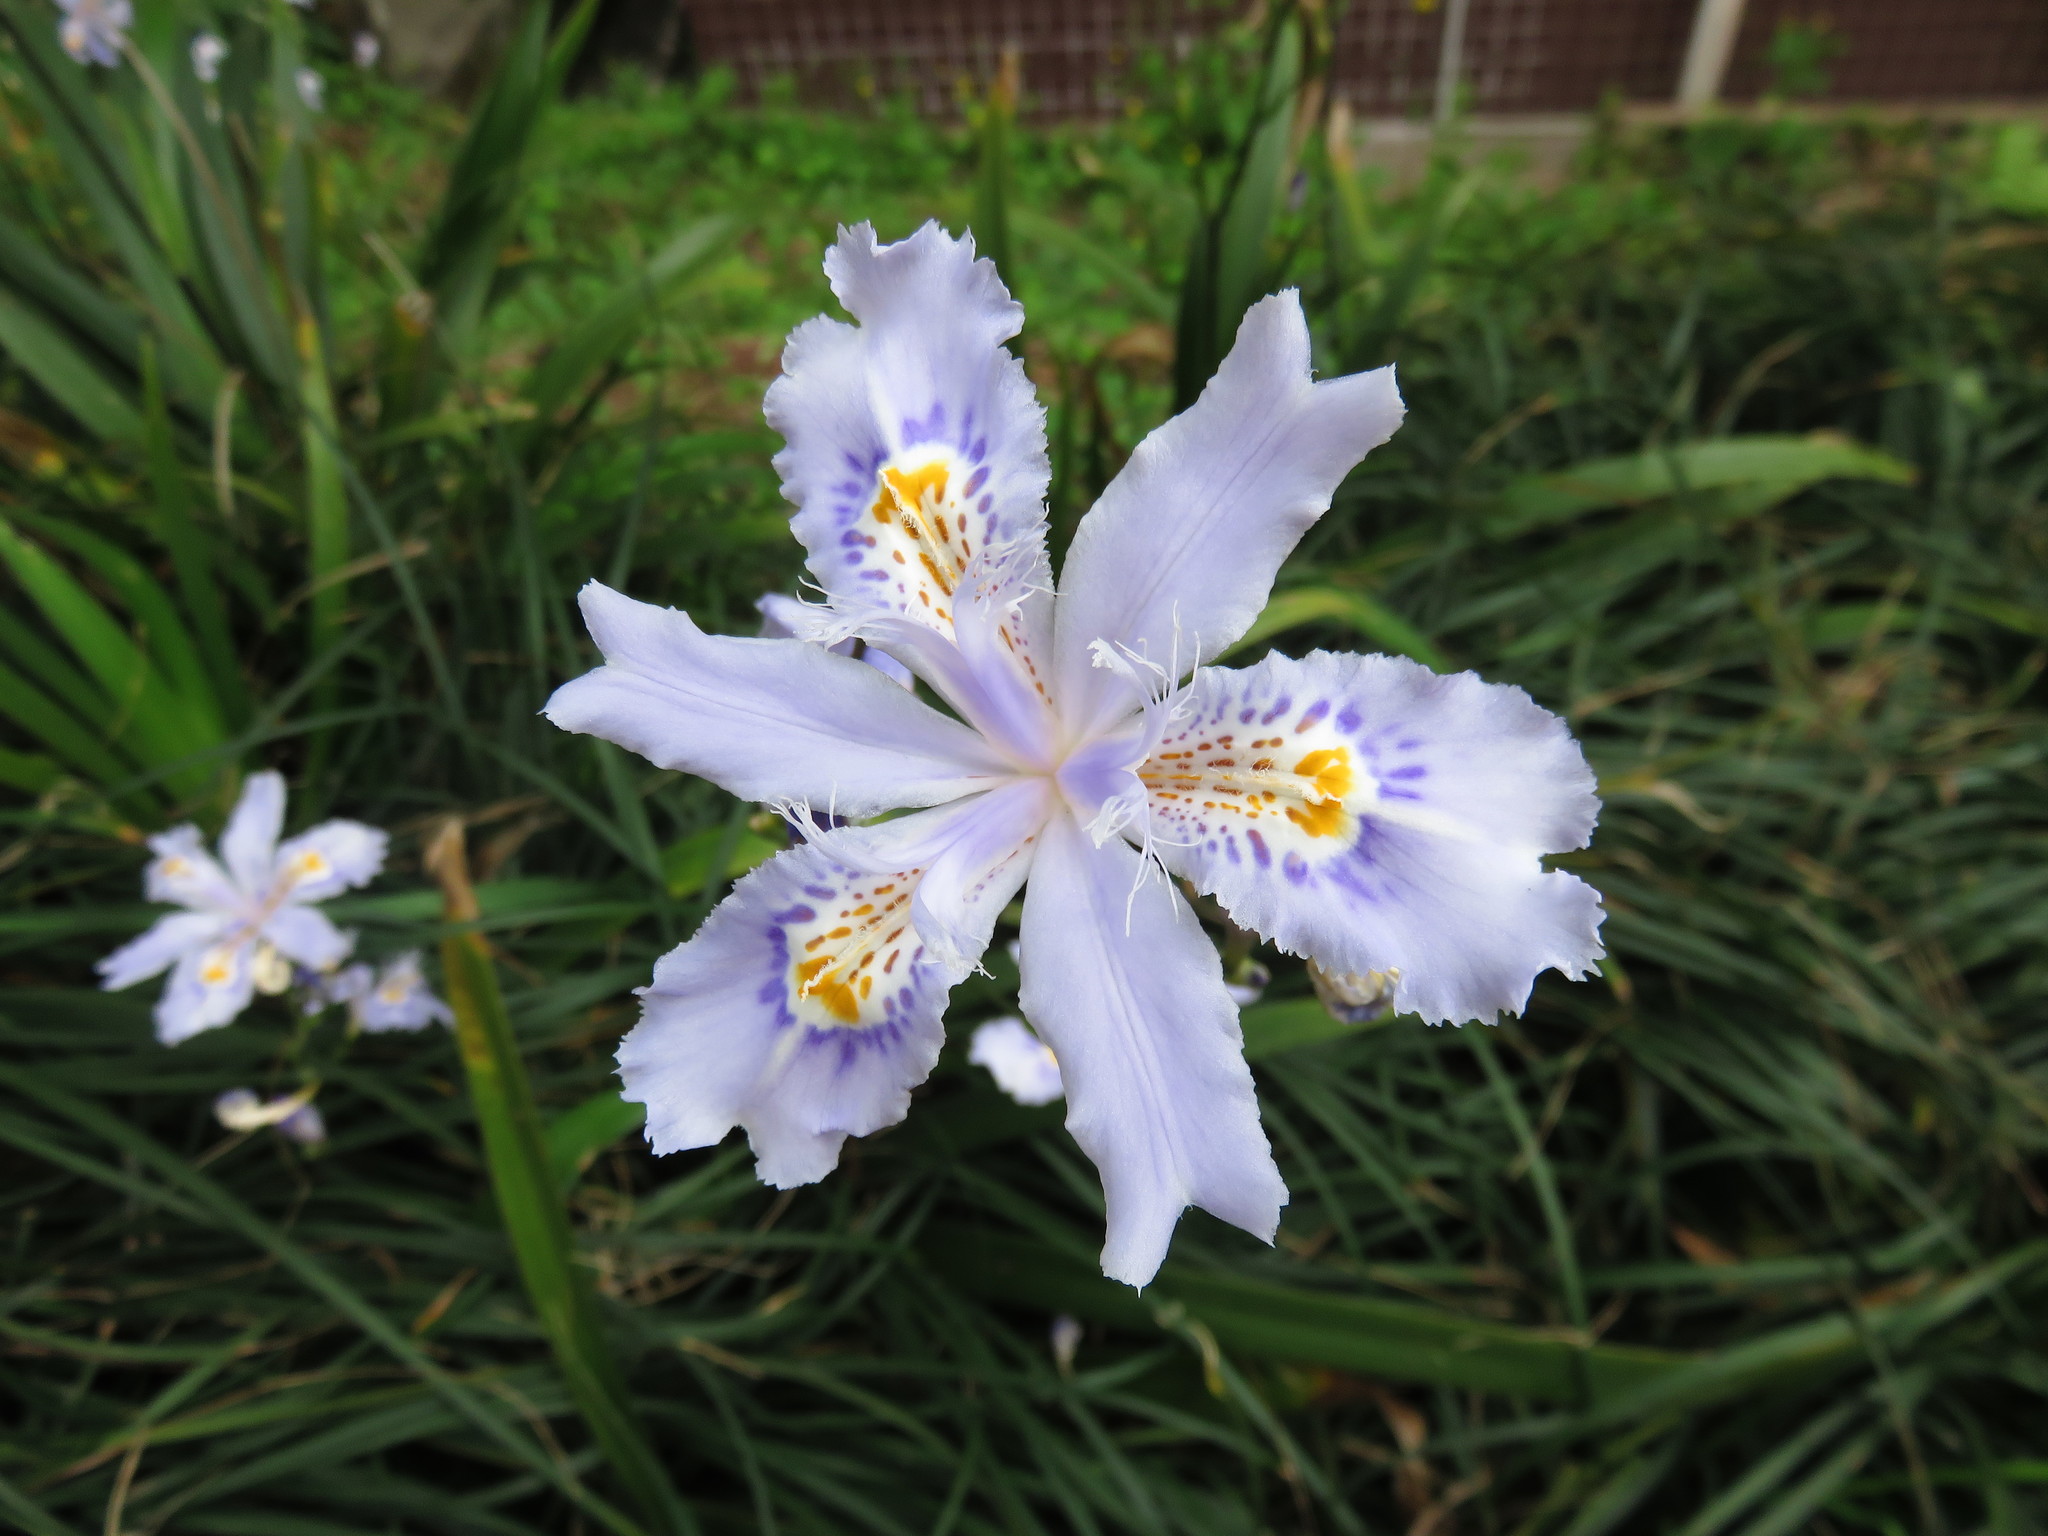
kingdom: Plantae
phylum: Tracheophyta
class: Liliopsida
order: Asparagales
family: Iridaceae
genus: Iris
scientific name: Iris japonica
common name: Butterfly-flower
